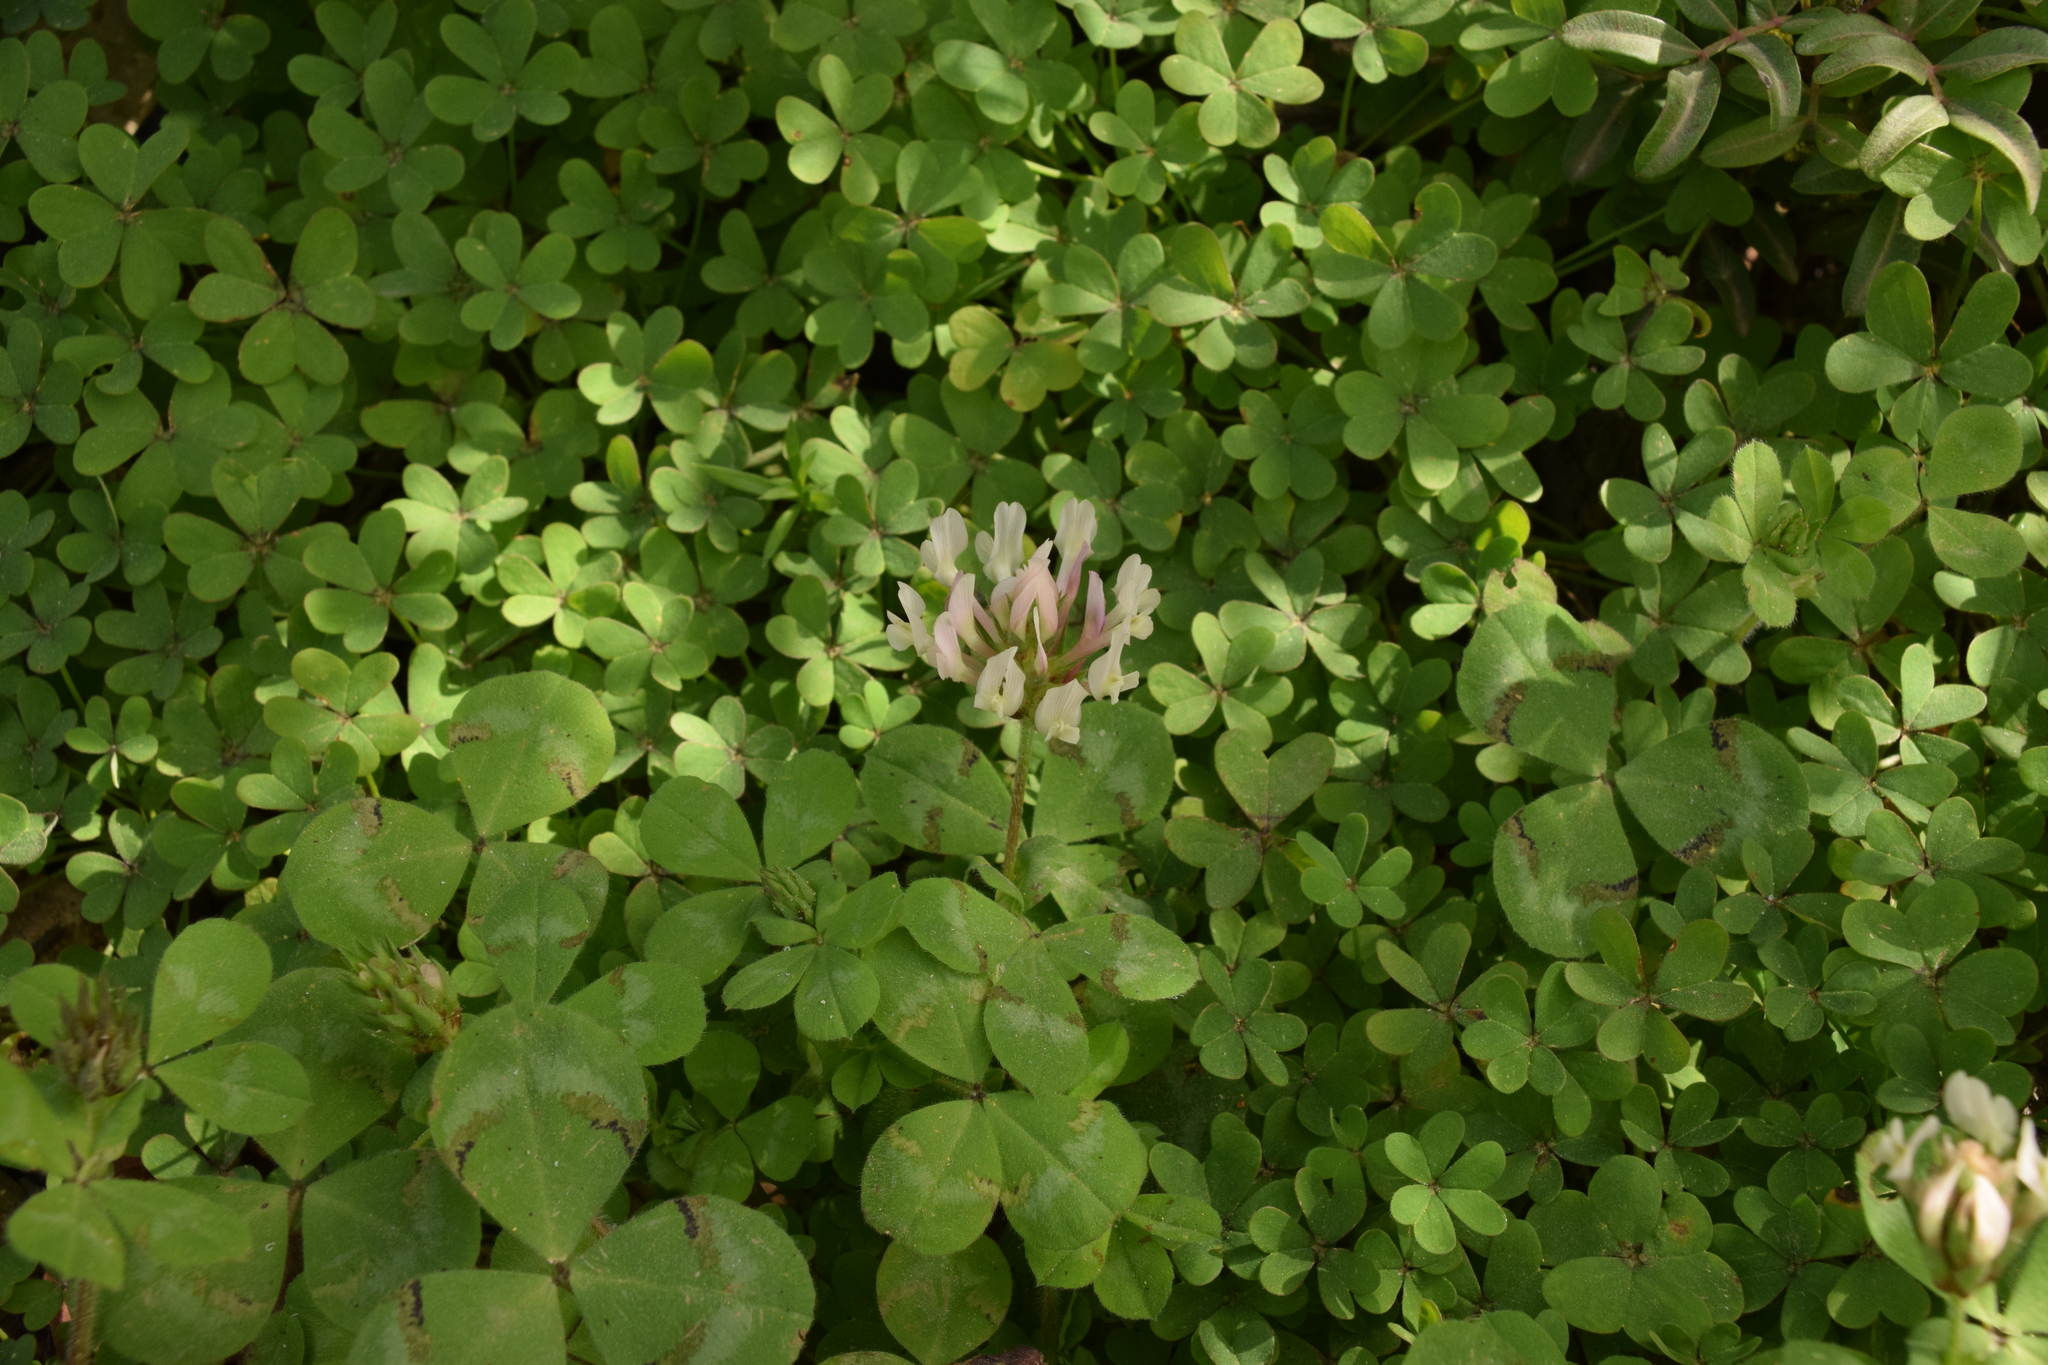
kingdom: Plantae
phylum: Tracheophyta
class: Magnoliopsida
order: Fabales
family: Fabaceae
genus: Trifolium
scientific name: Trifolium clypeatum
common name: Shield clover
